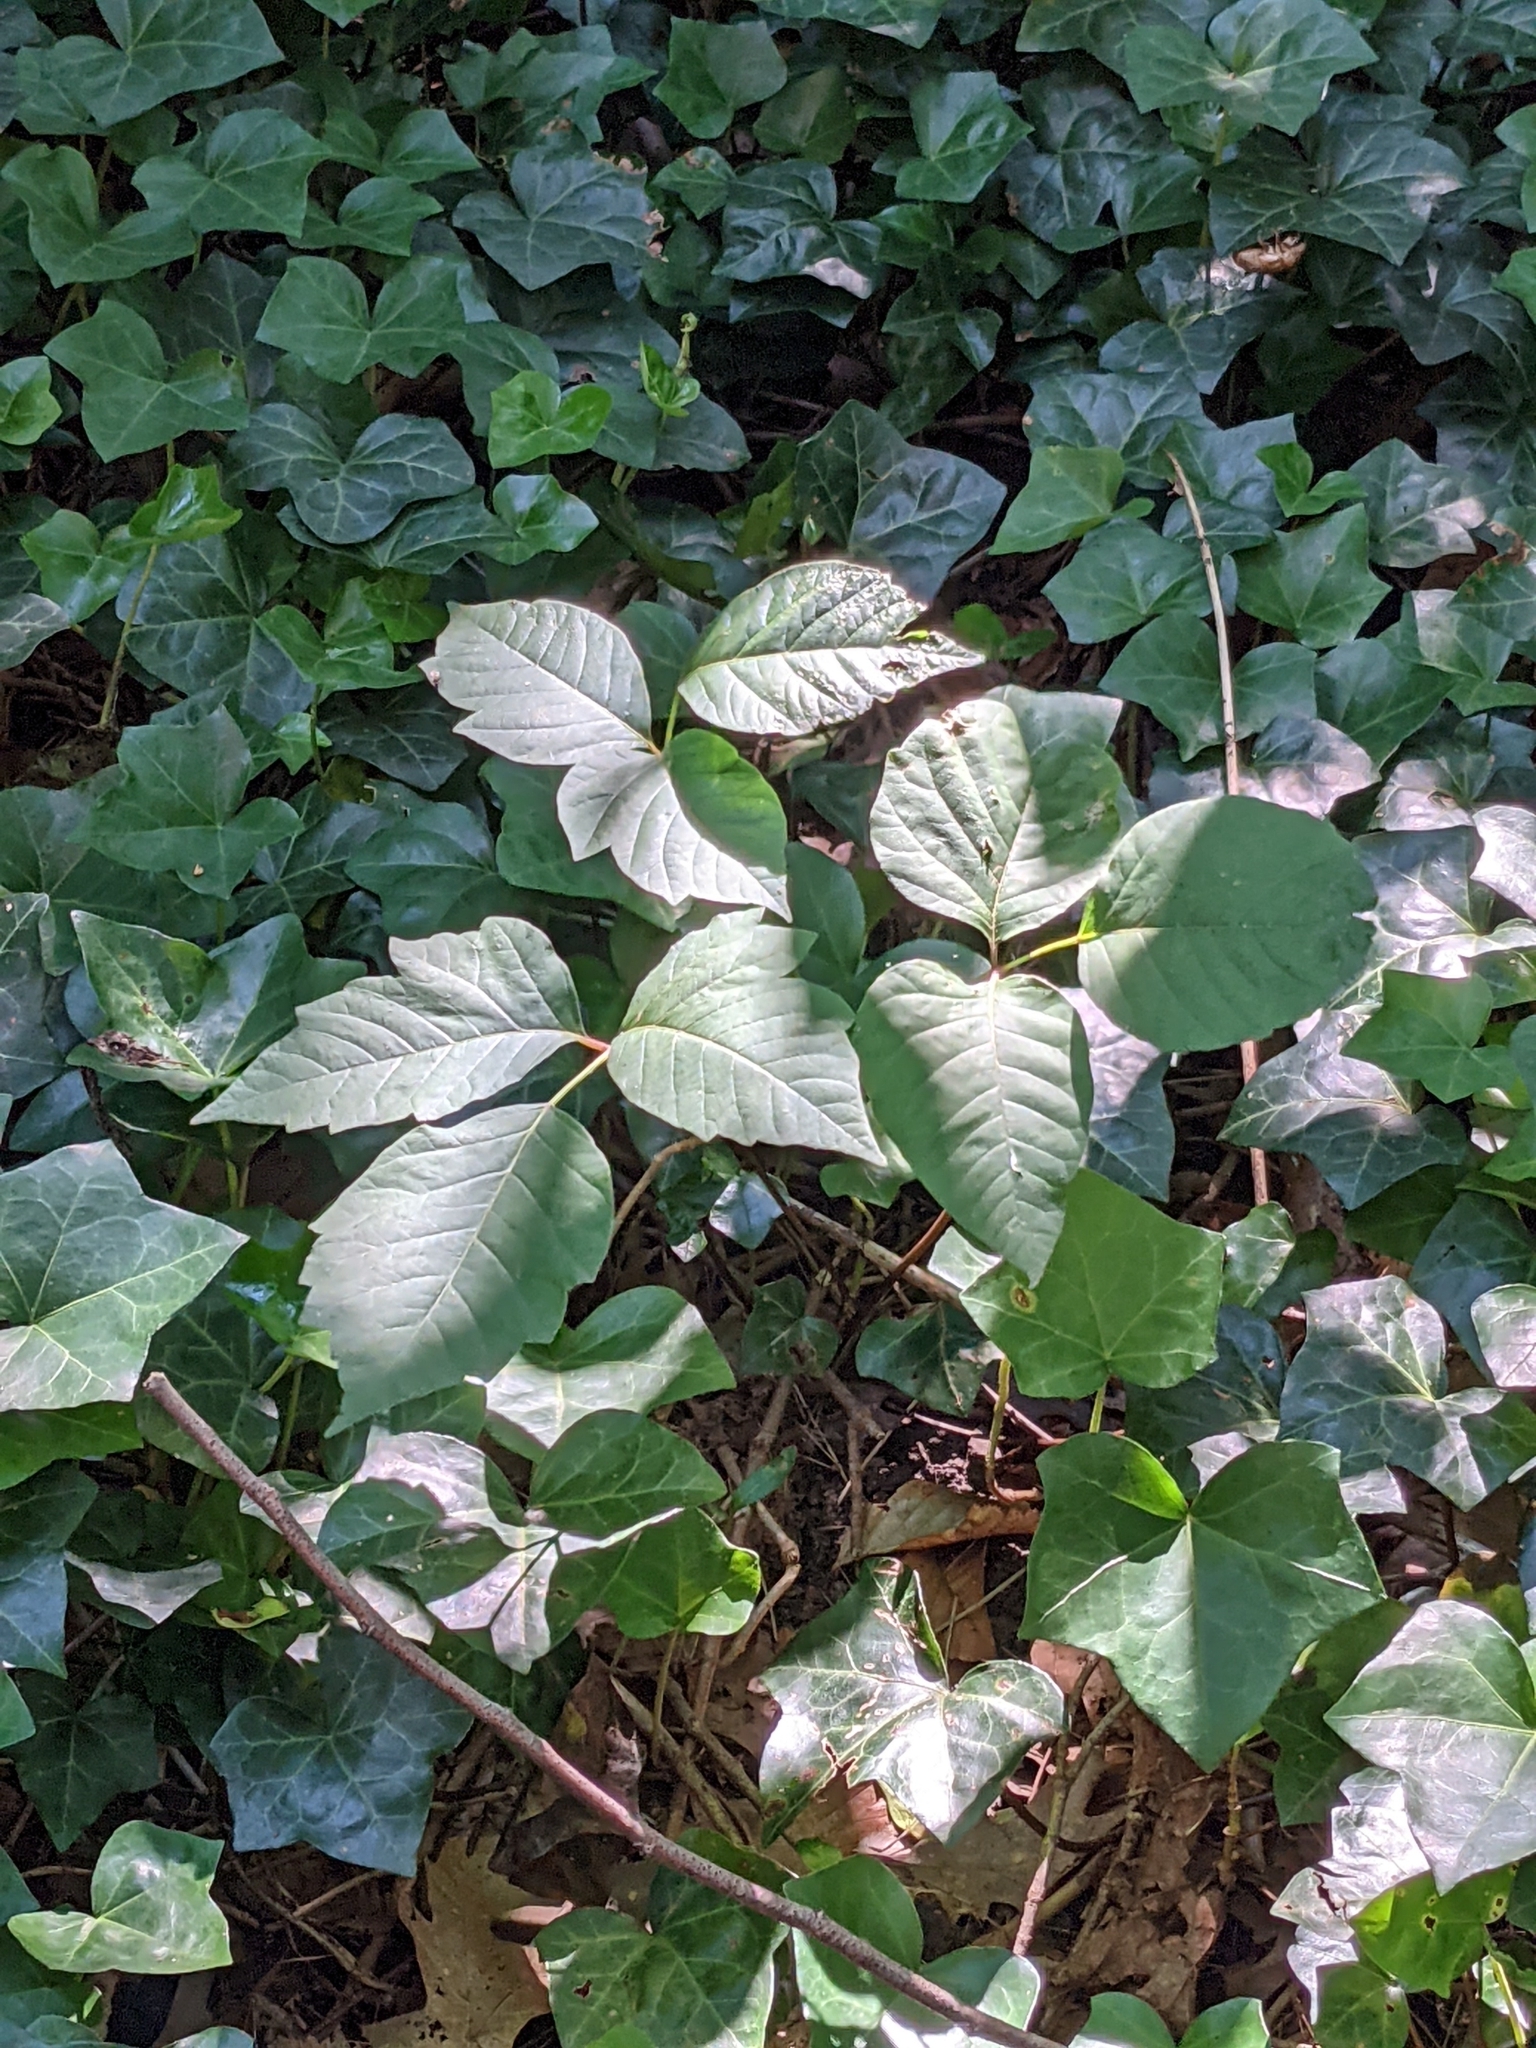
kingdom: Plantae
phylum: Tracheophyta
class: Magnoliopsida
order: Sapindales
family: Anacardiaceae
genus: Toxicodendron
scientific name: Toxicodendron radicans
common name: Poison ivy
